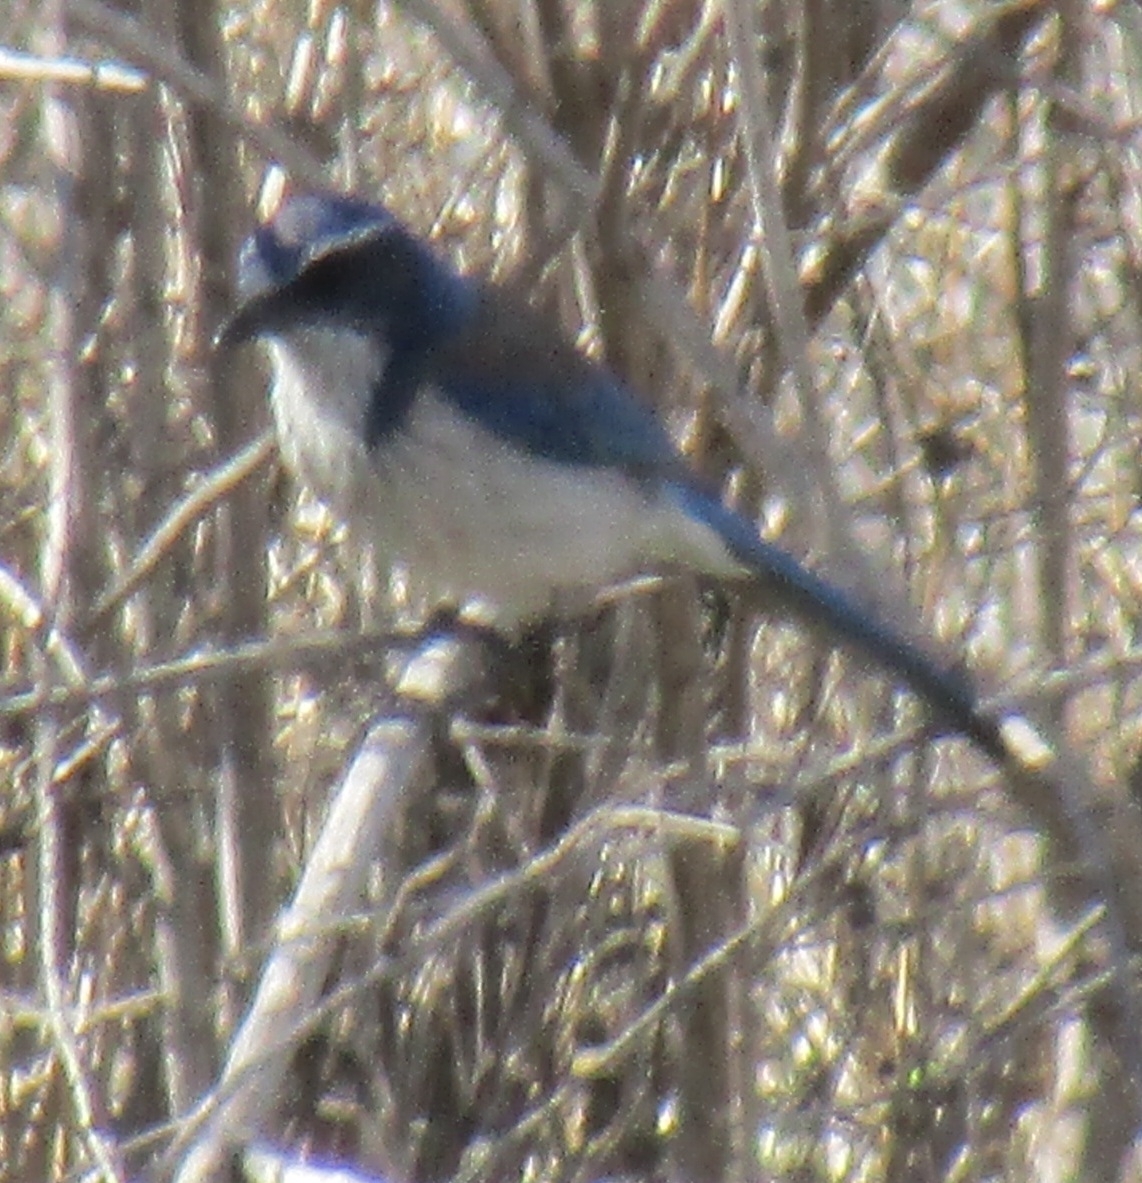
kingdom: Animalia
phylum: Chordata
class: Aves
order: Passeriformes
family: Corvidae
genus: Aphelocoma
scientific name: Aphelocoma californica
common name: California scrub-jay
